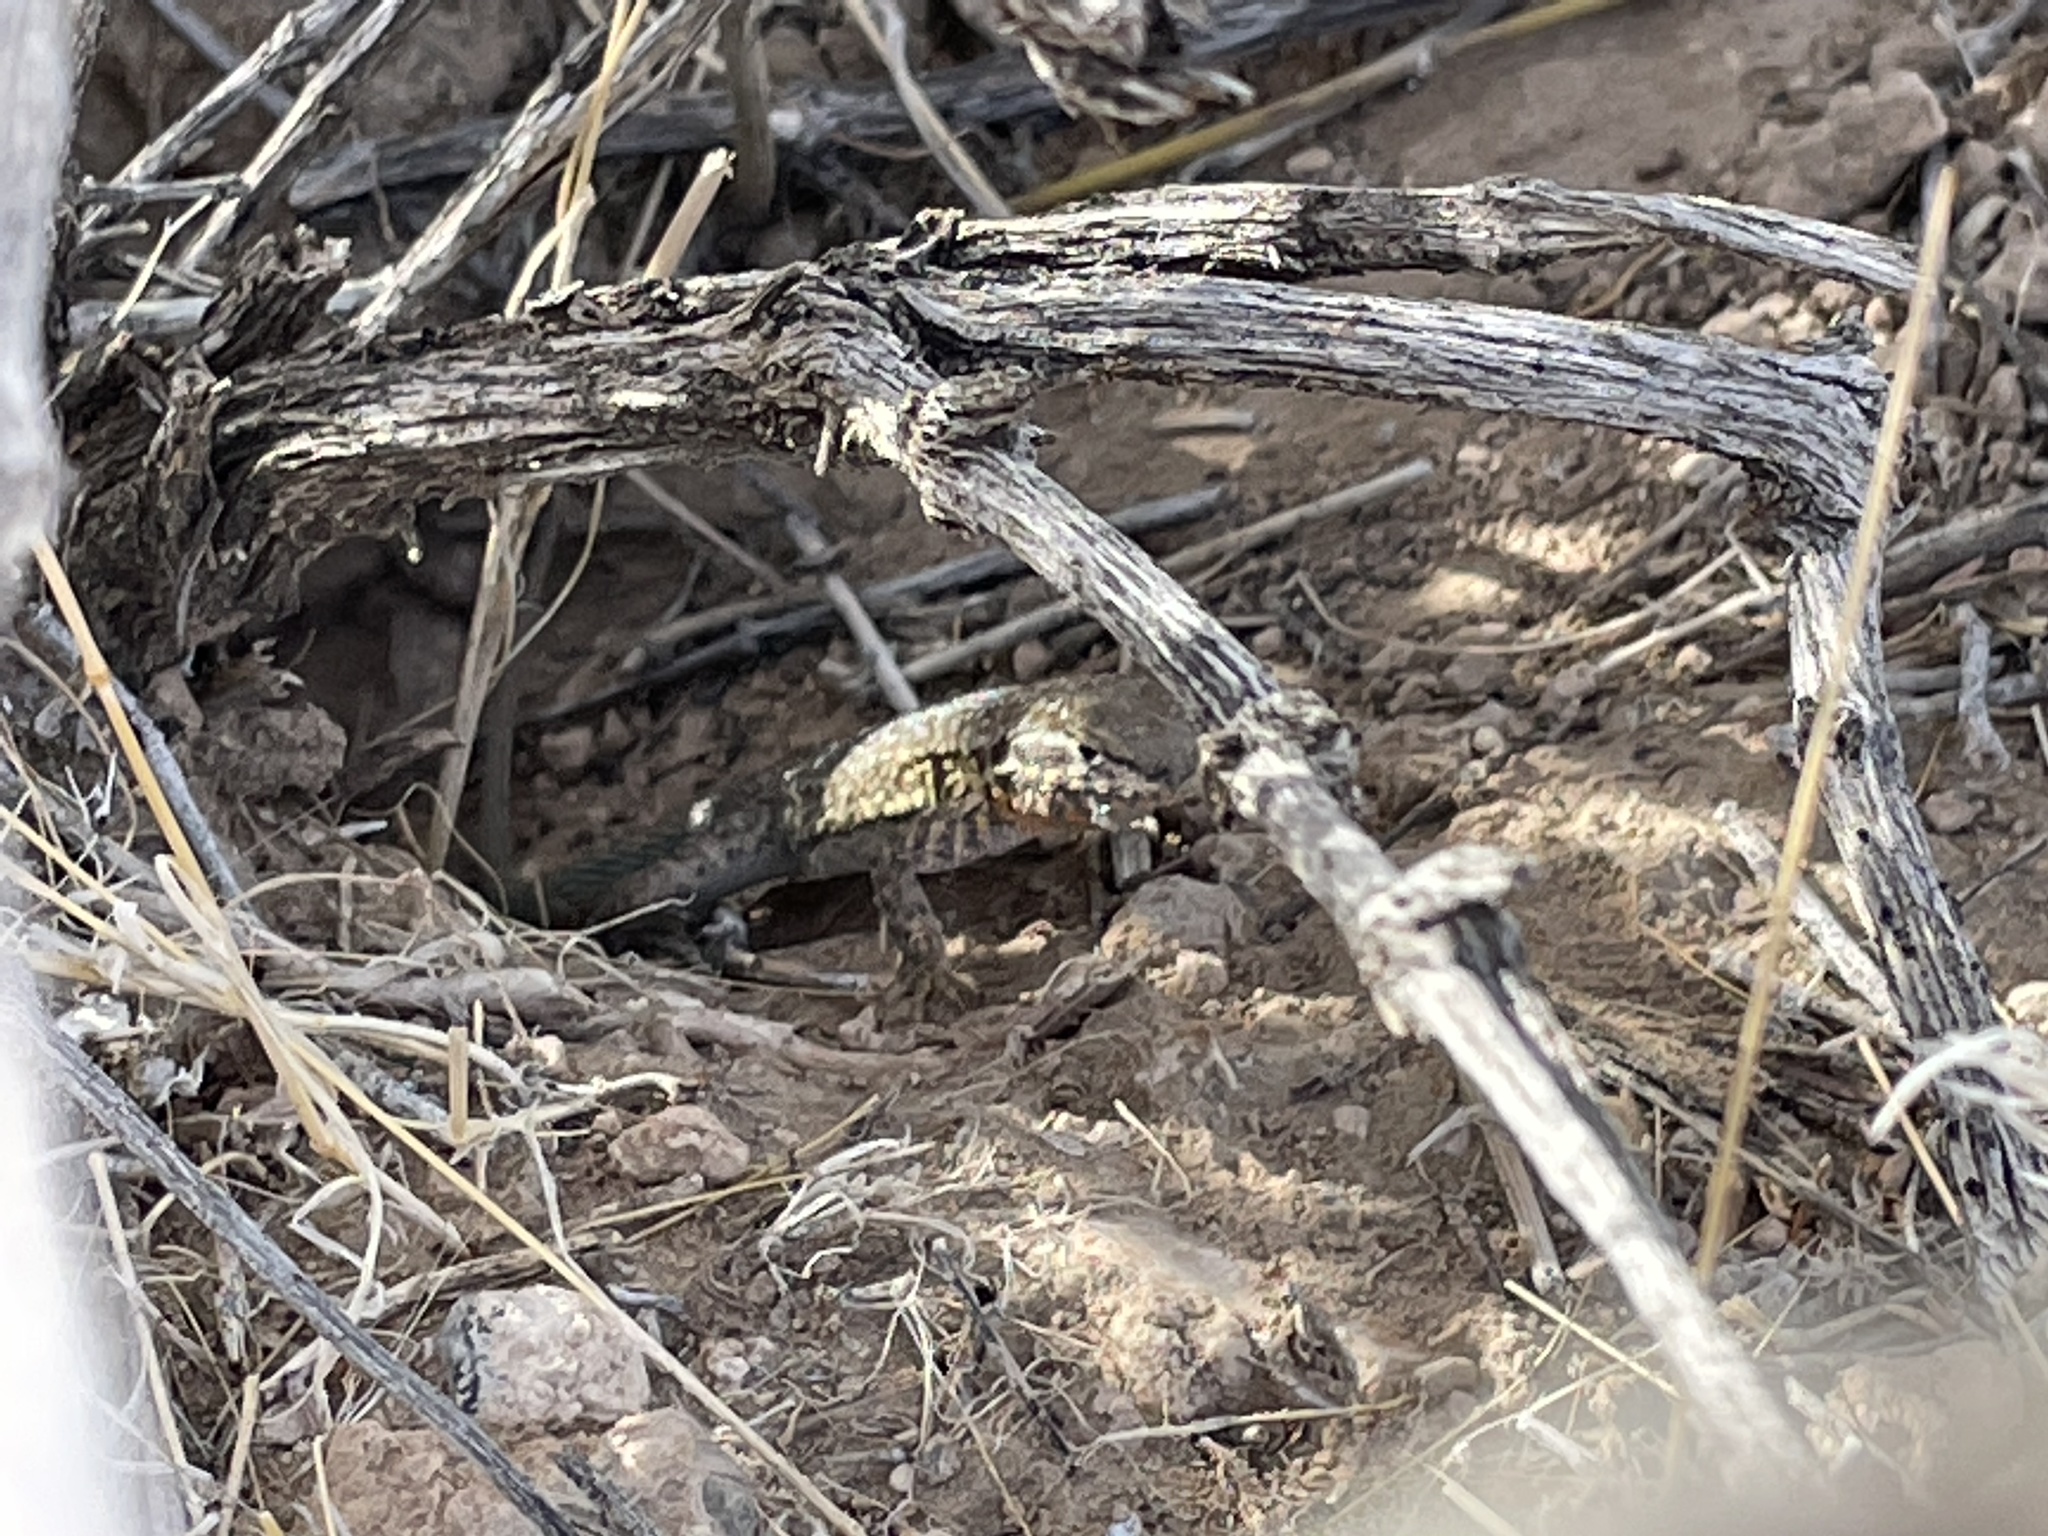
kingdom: Animalia
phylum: Chordata
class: Squamata
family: Phrynosomatidae
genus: Uta
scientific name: Uta stansburiana
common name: Side-blotched lizard
